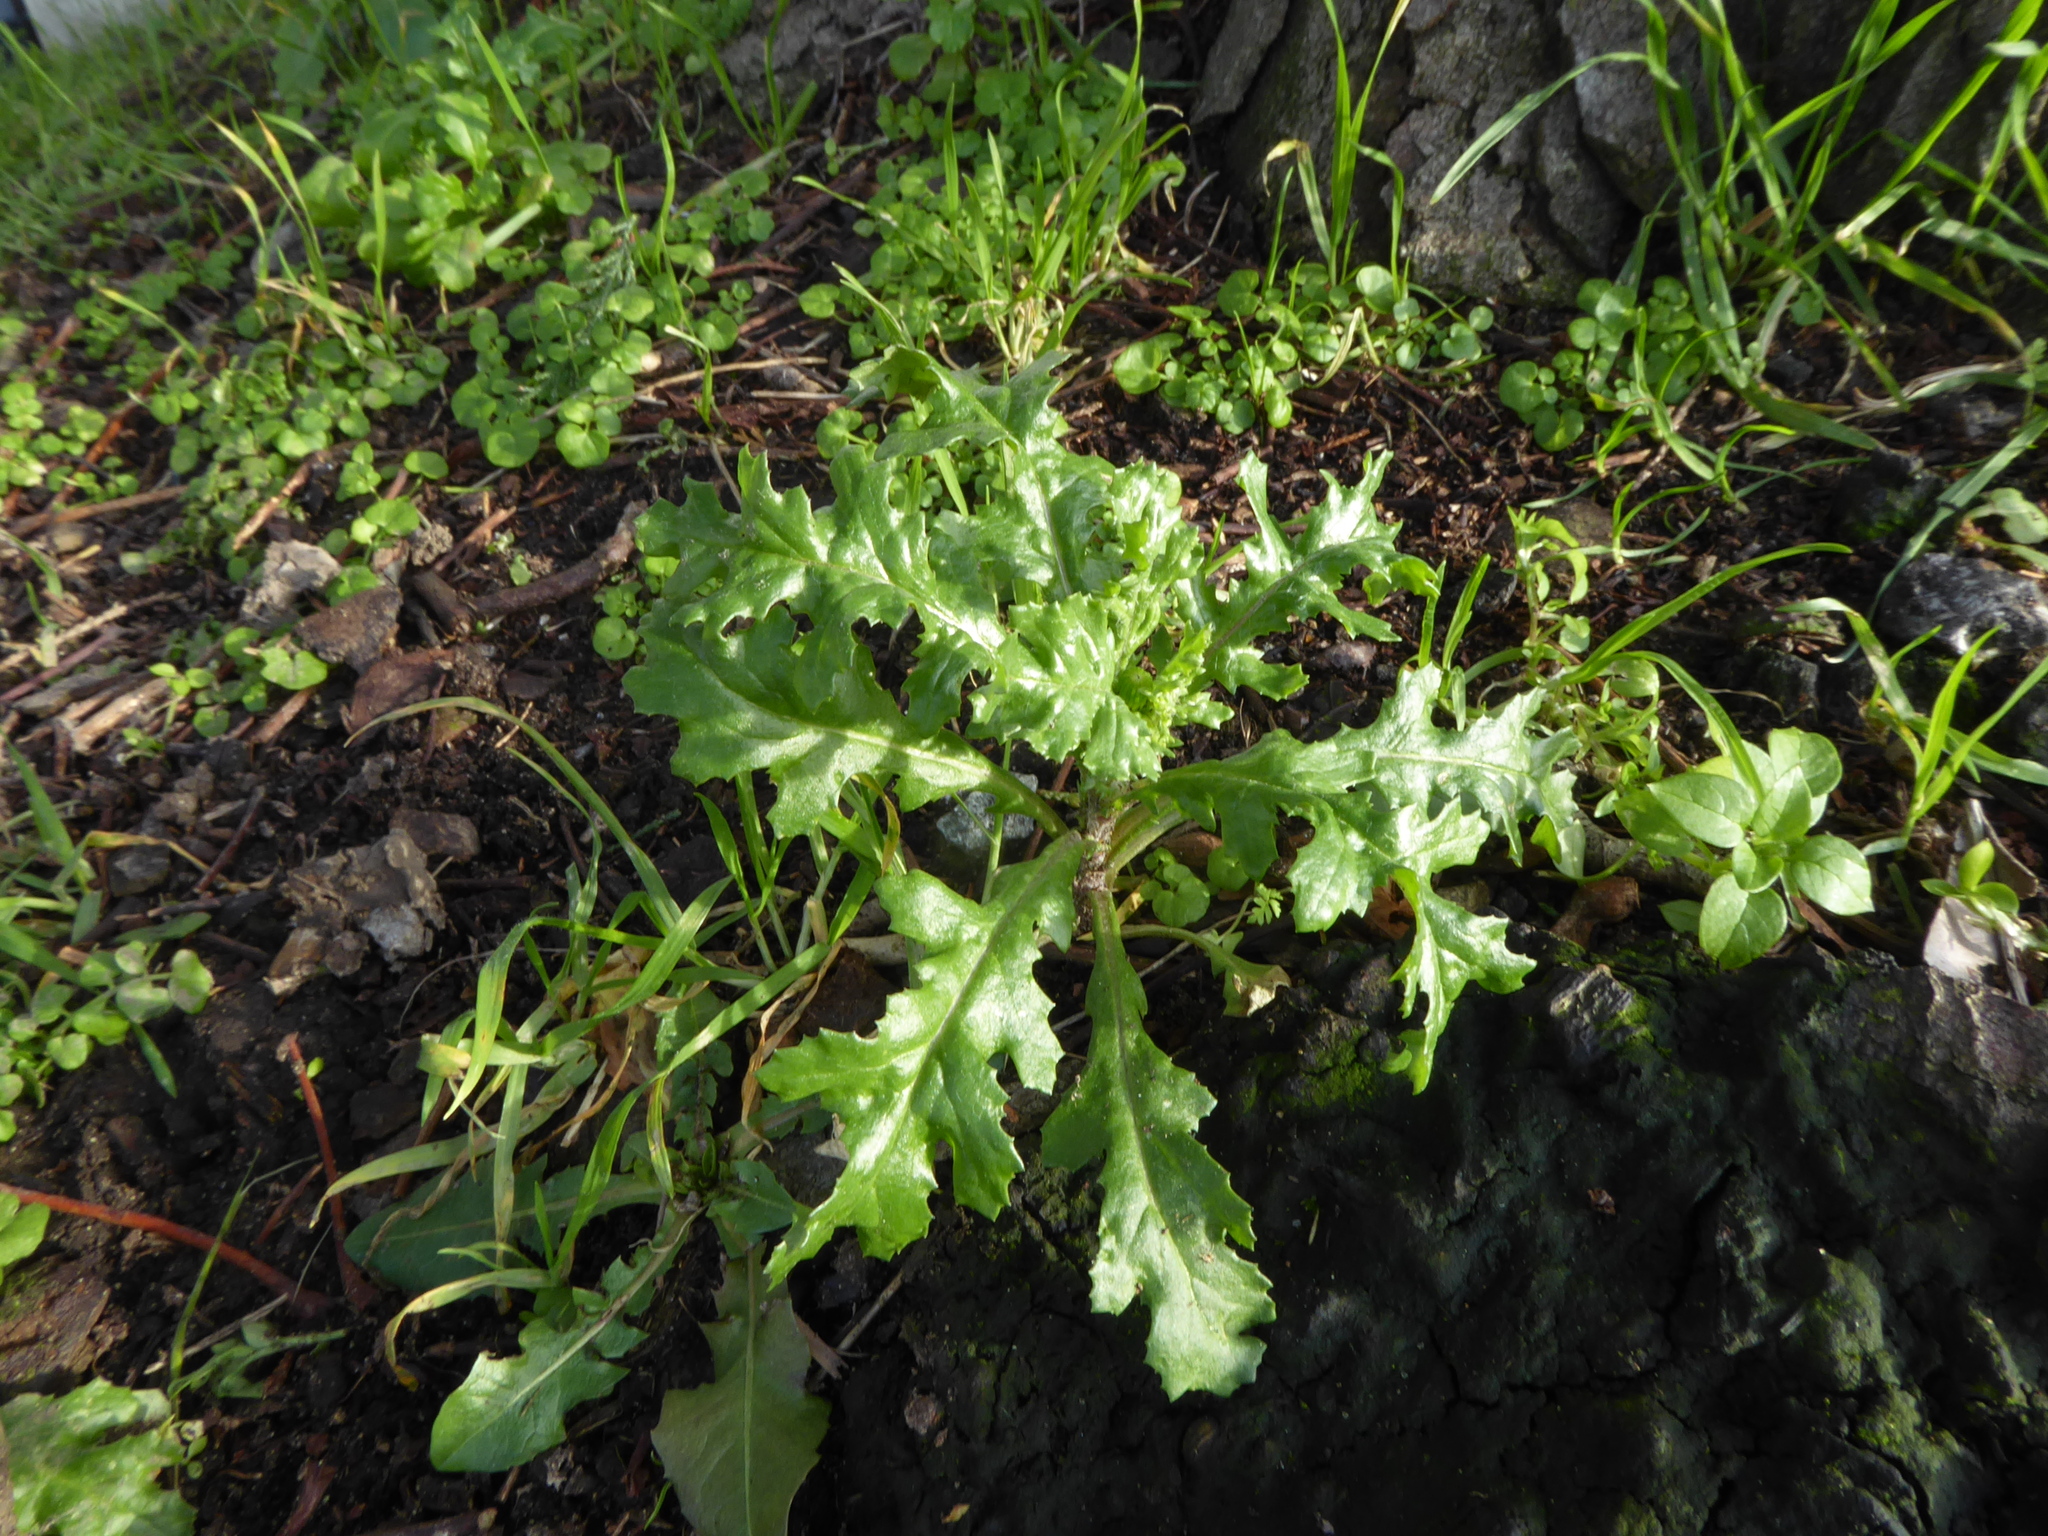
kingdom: Plantae
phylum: Tracheophyta
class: Magnoliopsida
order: Asterales
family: Asteraceae
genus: Senecio
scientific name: Senecio vulgaris
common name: Old-man-in-the-spring
